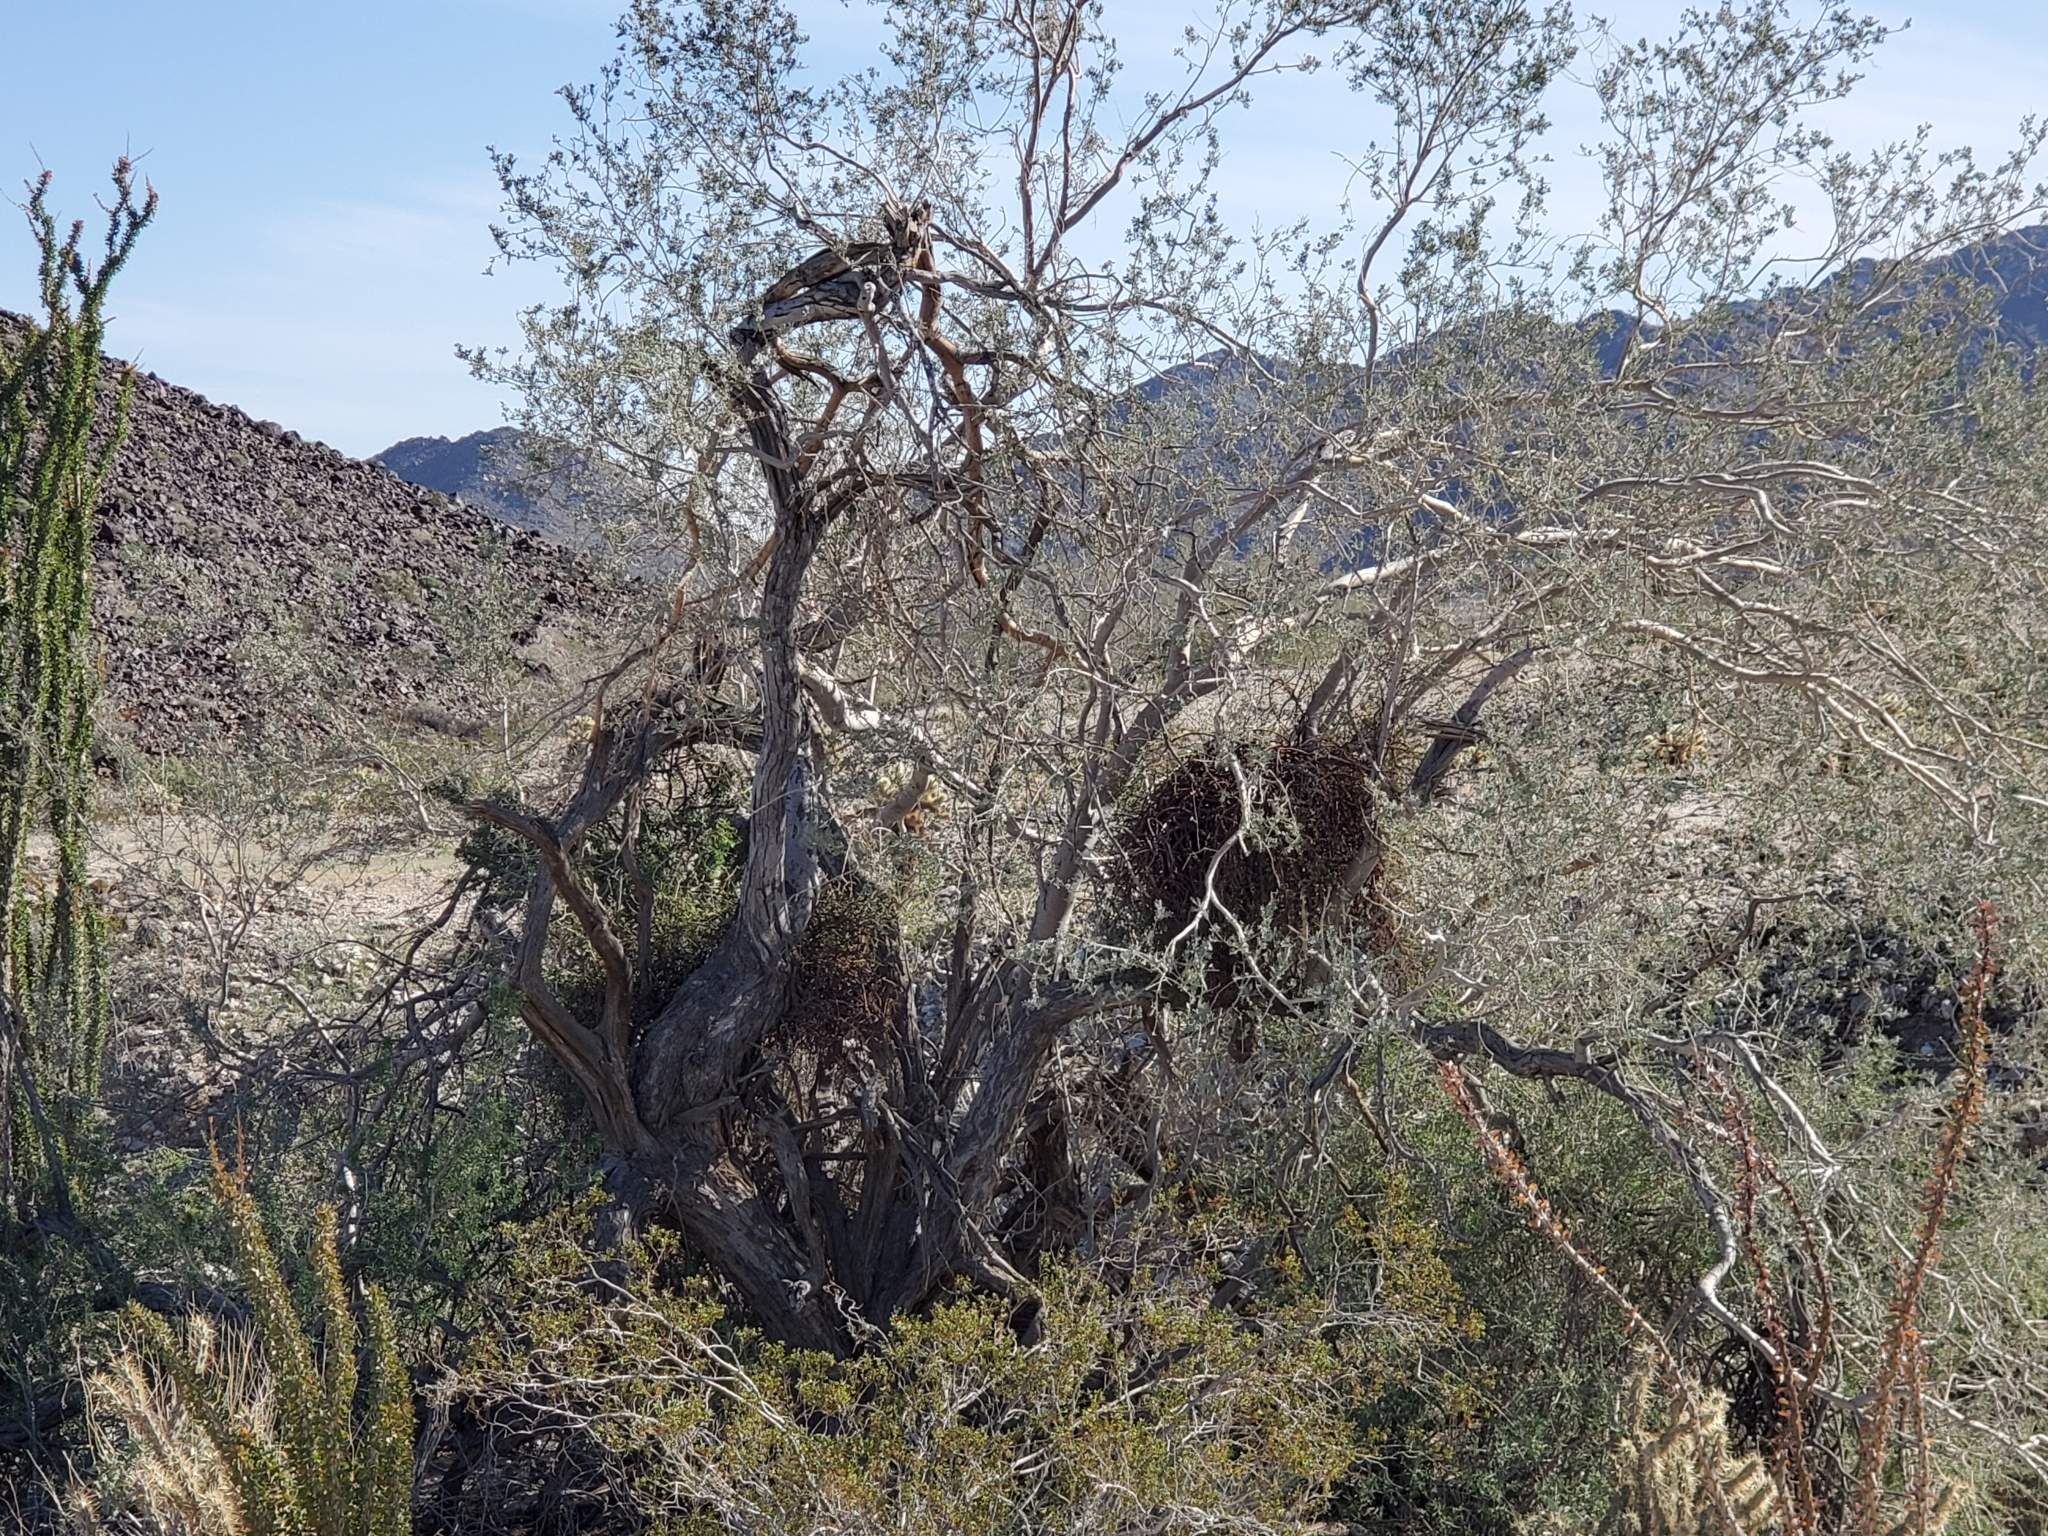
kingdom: Plantae
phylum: Tracheophyta
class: Magnoliopsida
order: Santalales
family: Viscaceae
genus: Phoradendron
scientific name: Phoradendron californicum
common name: Acacia mistletoe
